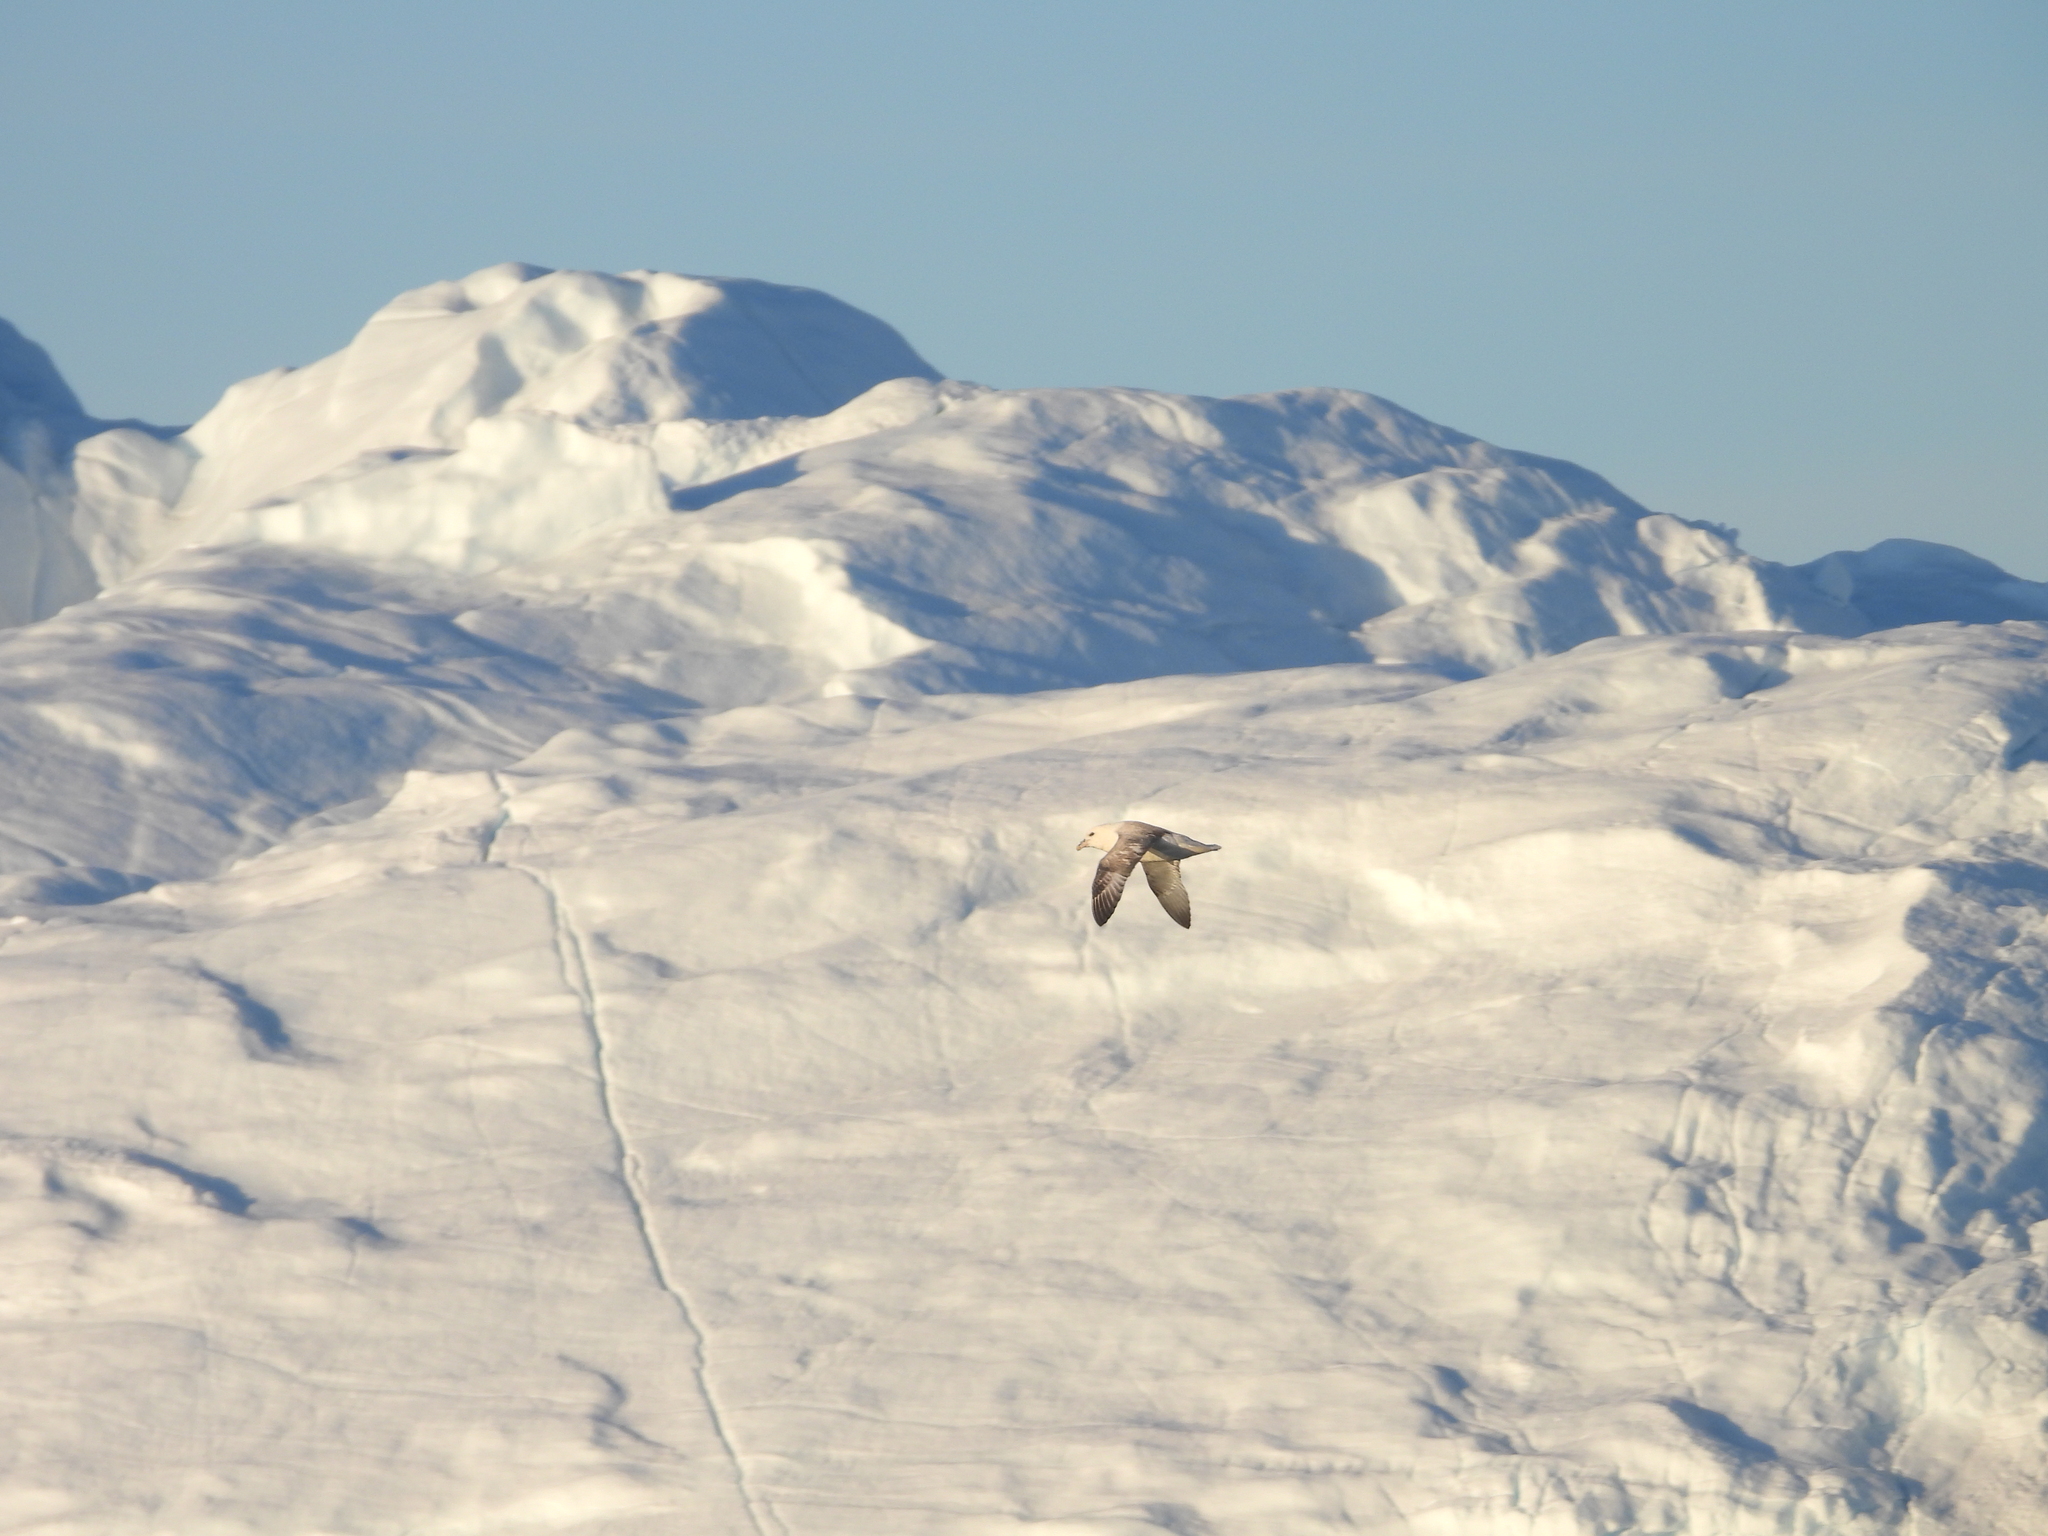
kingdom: Animalia
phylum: Chordata
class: Aves
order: Procellariiformes
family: Procellariidae
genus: Fulmarus
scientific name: Fulmarus glacialis
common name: Northern fulmar
